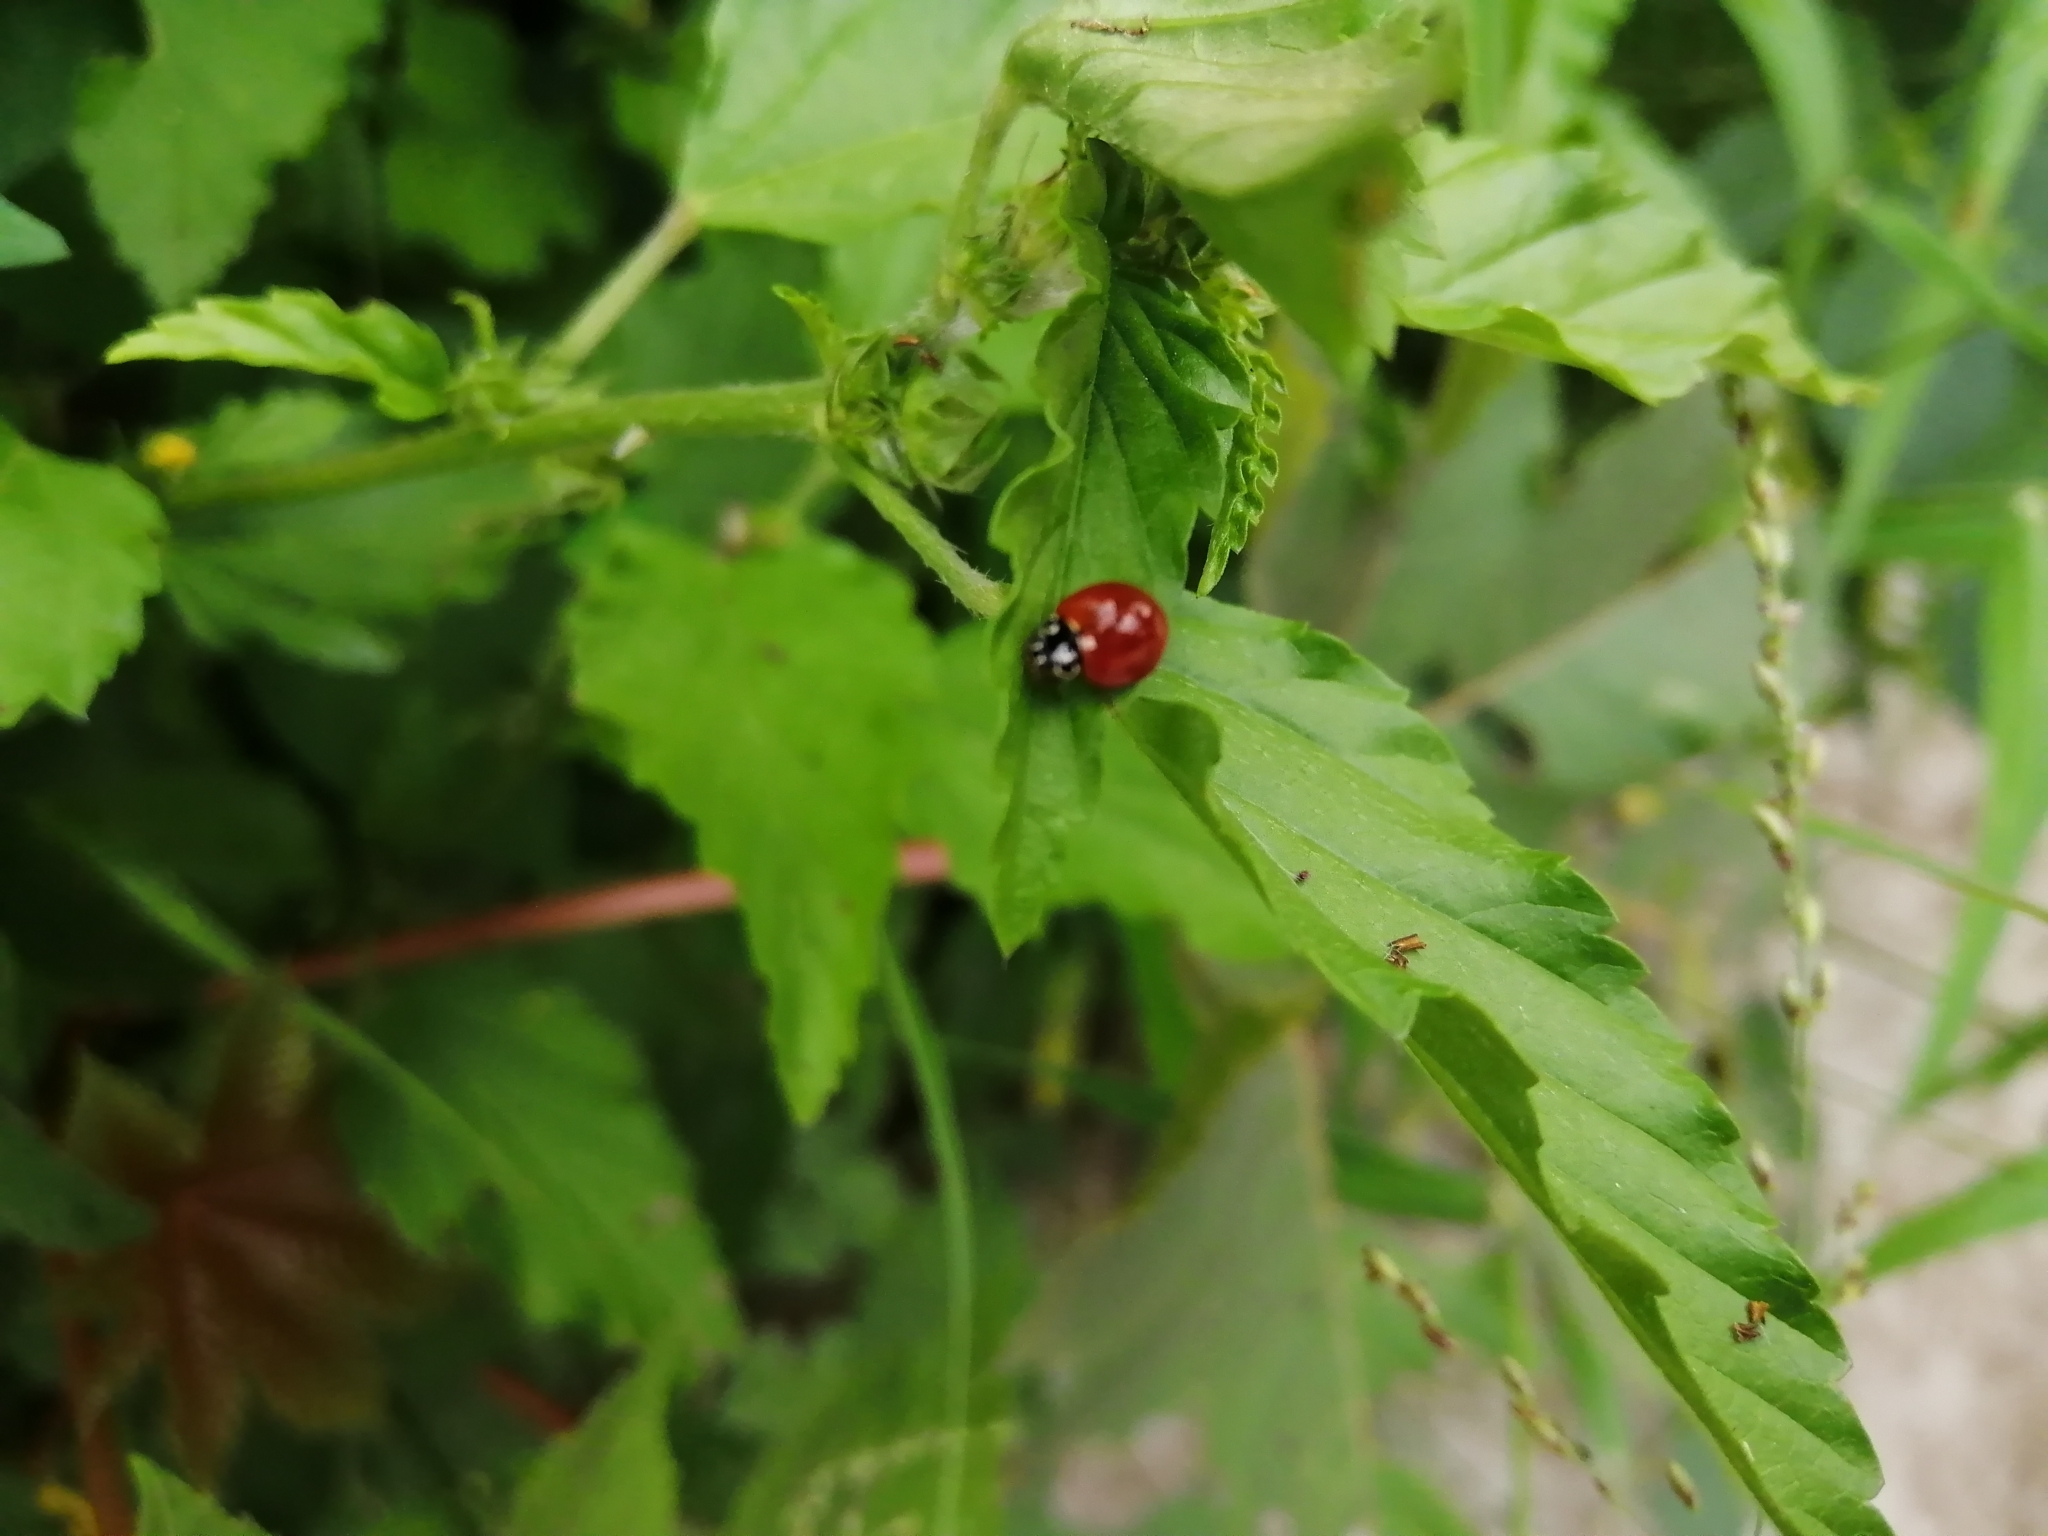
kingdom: Animalia
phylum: Arthropoda
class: Insecta
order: Coleoptera
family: Coccinellidae
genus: Cycloneda
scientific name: Cycloneda sanguinea
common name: Ladybird beetle
